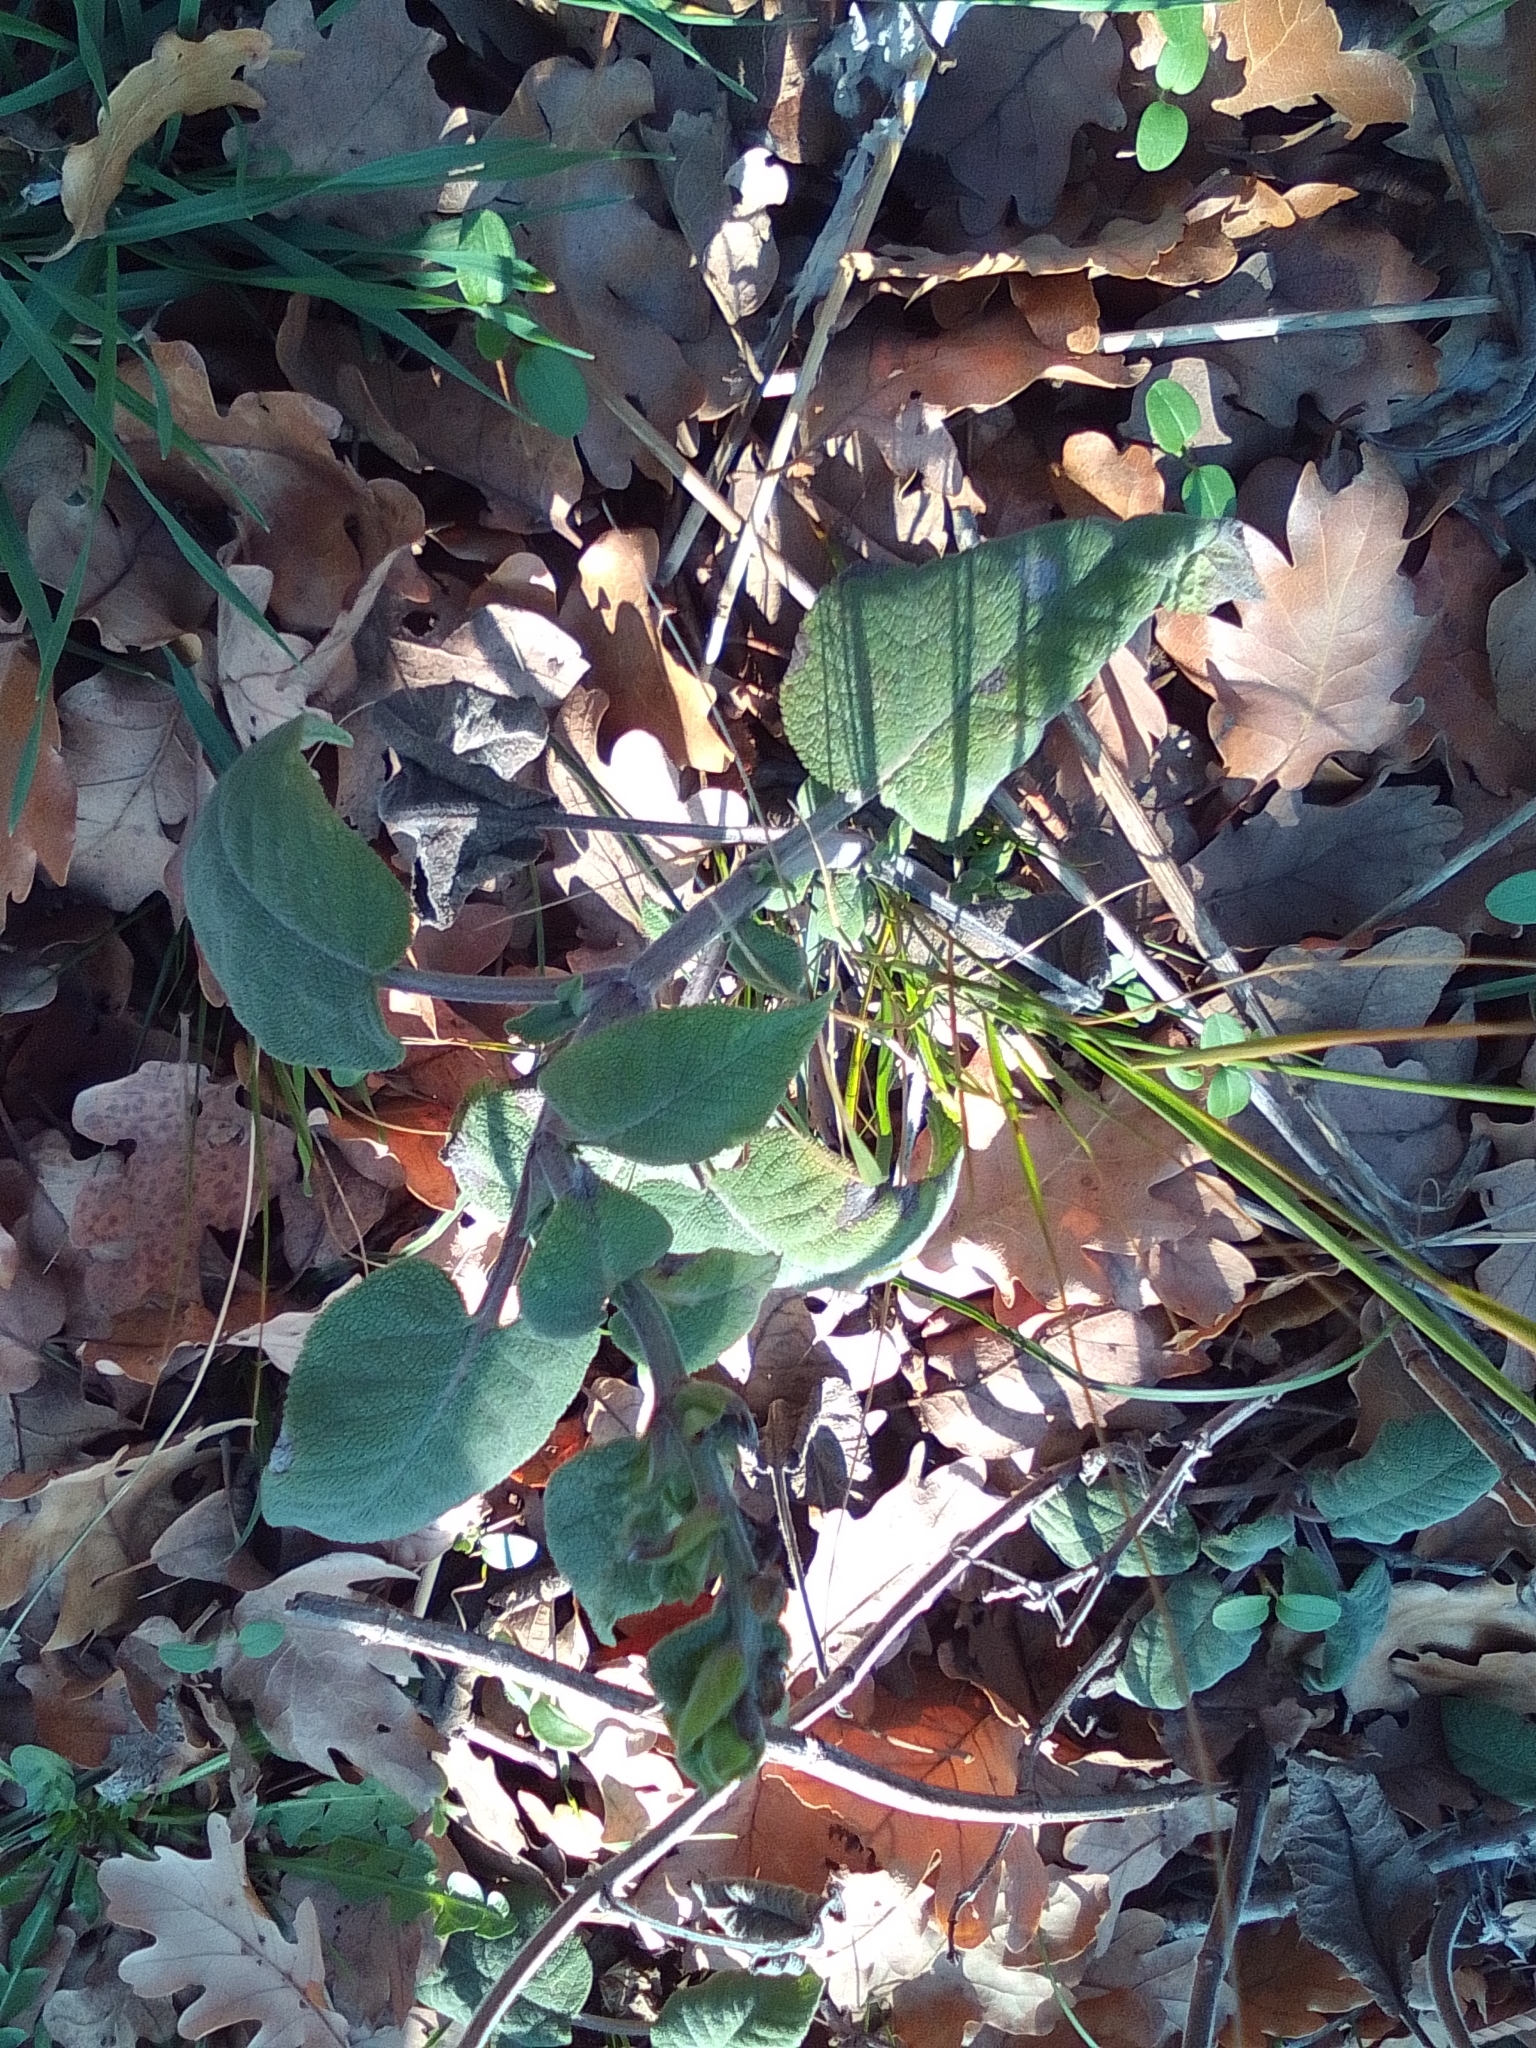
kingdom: Plantae
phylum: Tracheophyta
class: Magnoliopsida
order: Lamiales
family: Lamiaceae
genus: Salvia
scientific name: Salvia tomentosa
